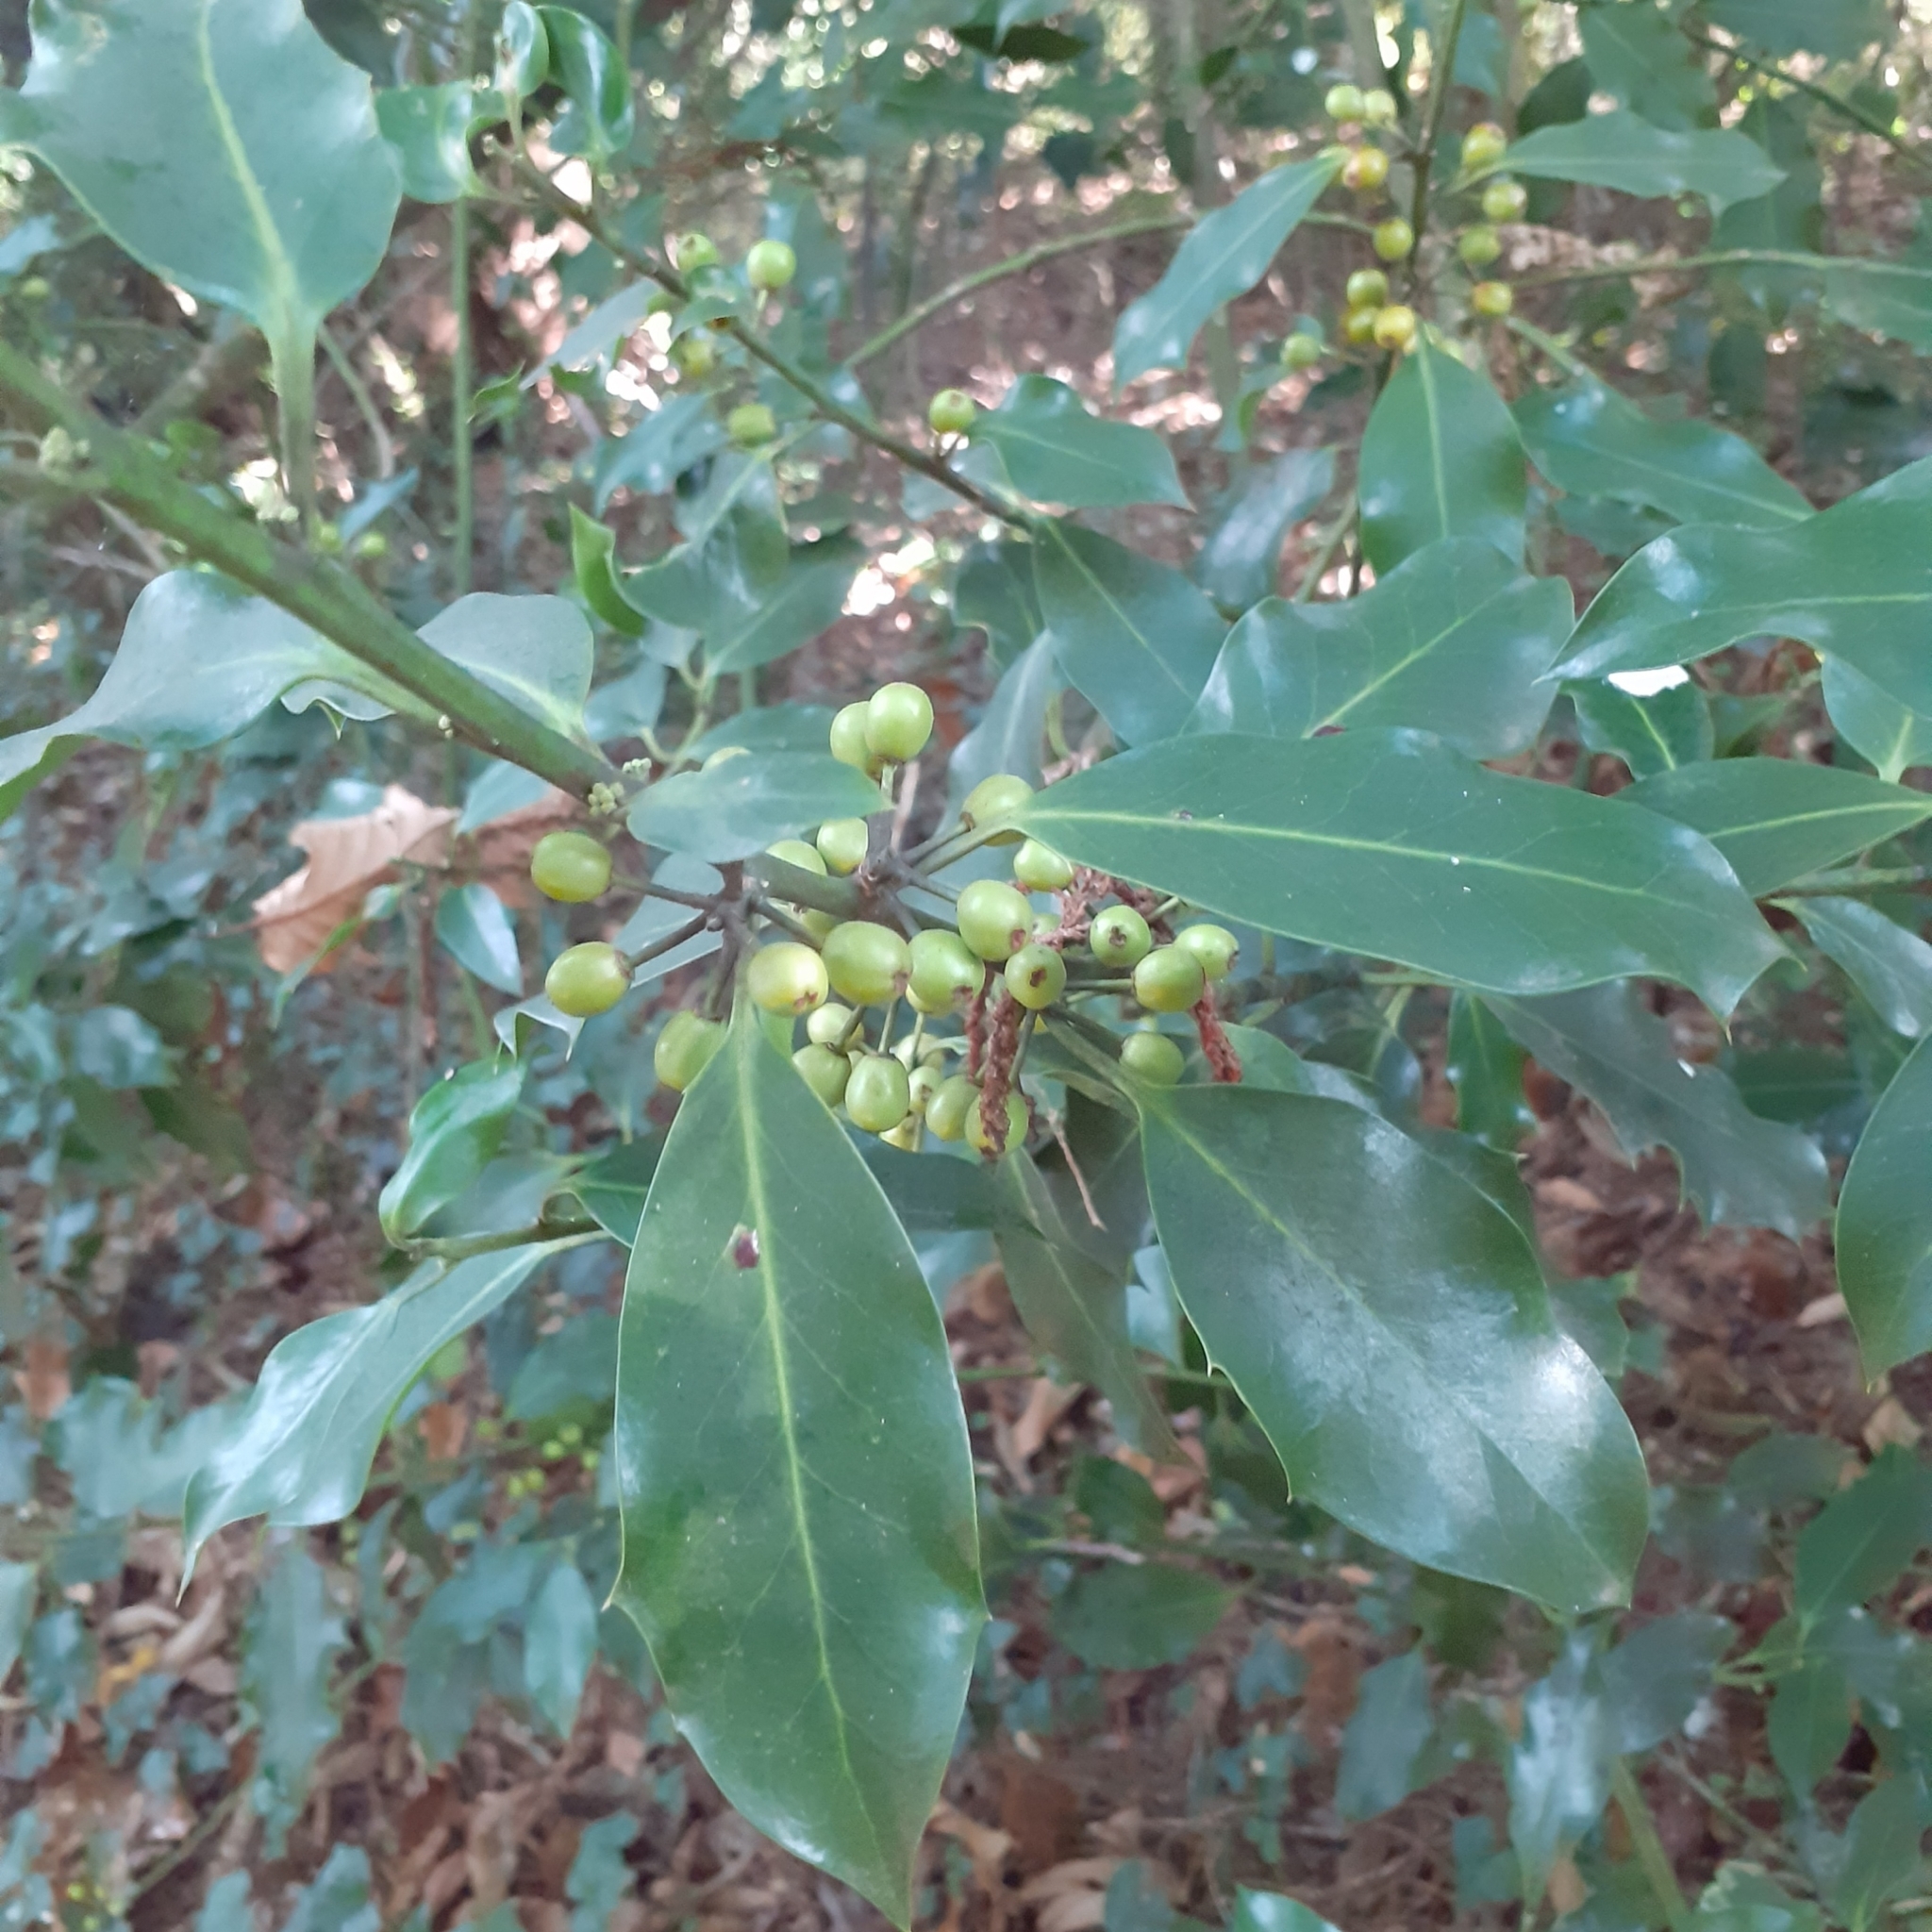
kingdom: Plantae
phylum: Tracheophyta
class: Magnoliopsida
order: Laurales
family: Lauraceae
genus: Laurus
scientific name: Laurus nobilis
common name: Bay
